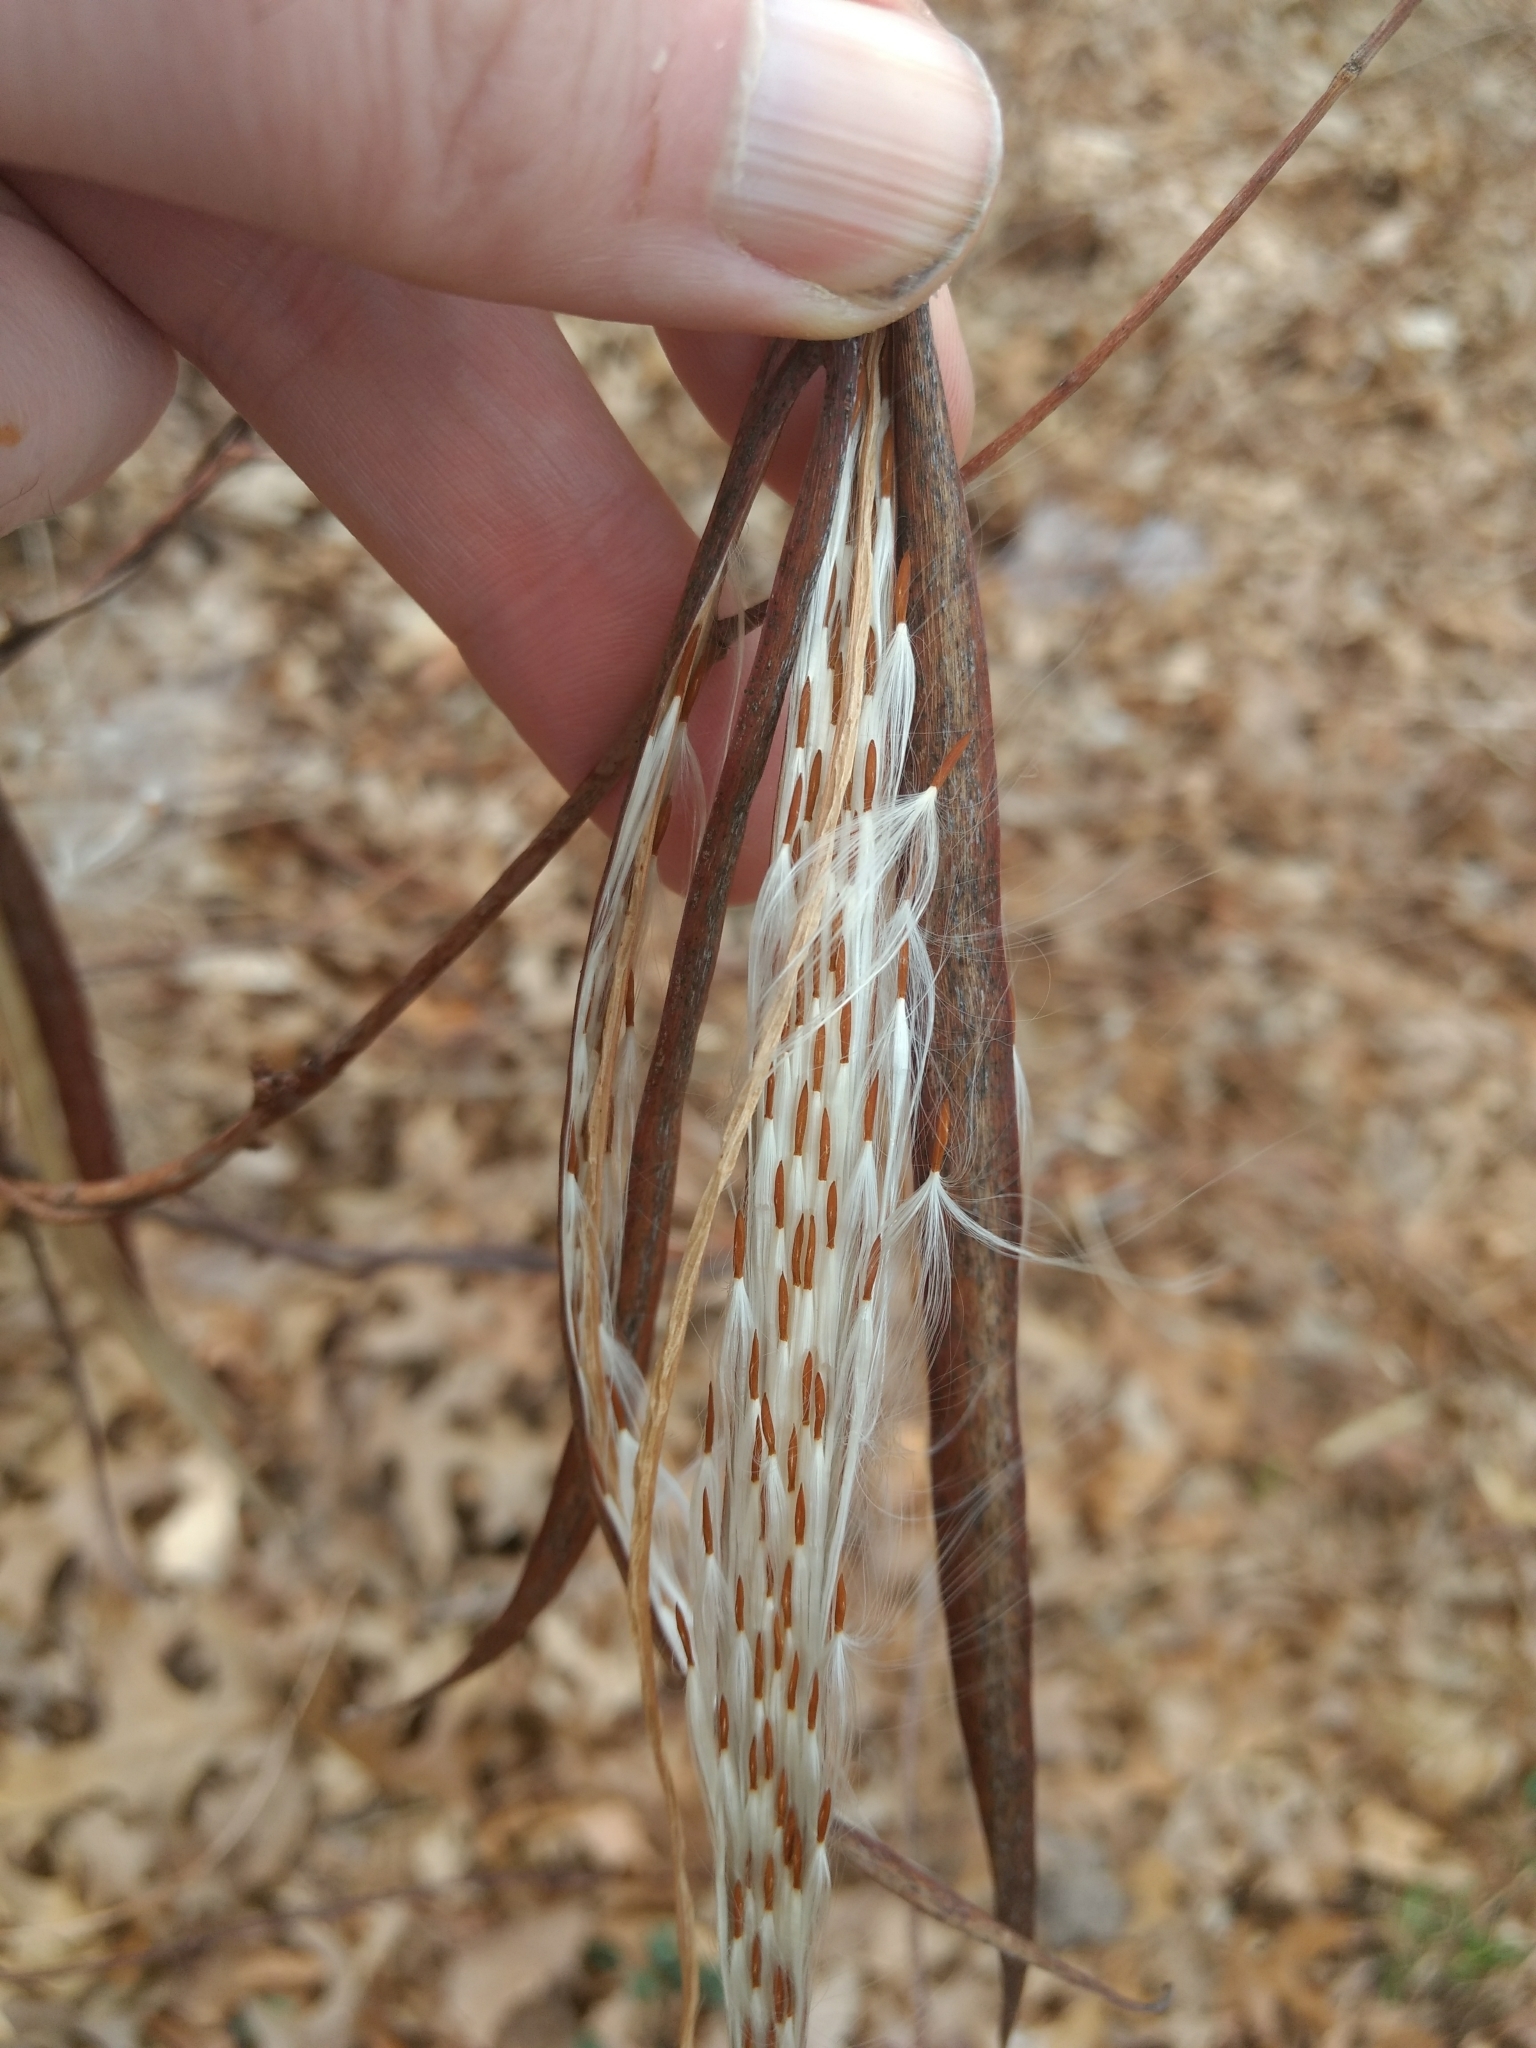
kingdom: Plantae
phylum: Tracheophyta
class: Magnoliopsida
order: Gentianales
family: Apocynaceae
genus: Apocynum
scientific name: Apocynum cannabinum
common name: Hemp dogbane
